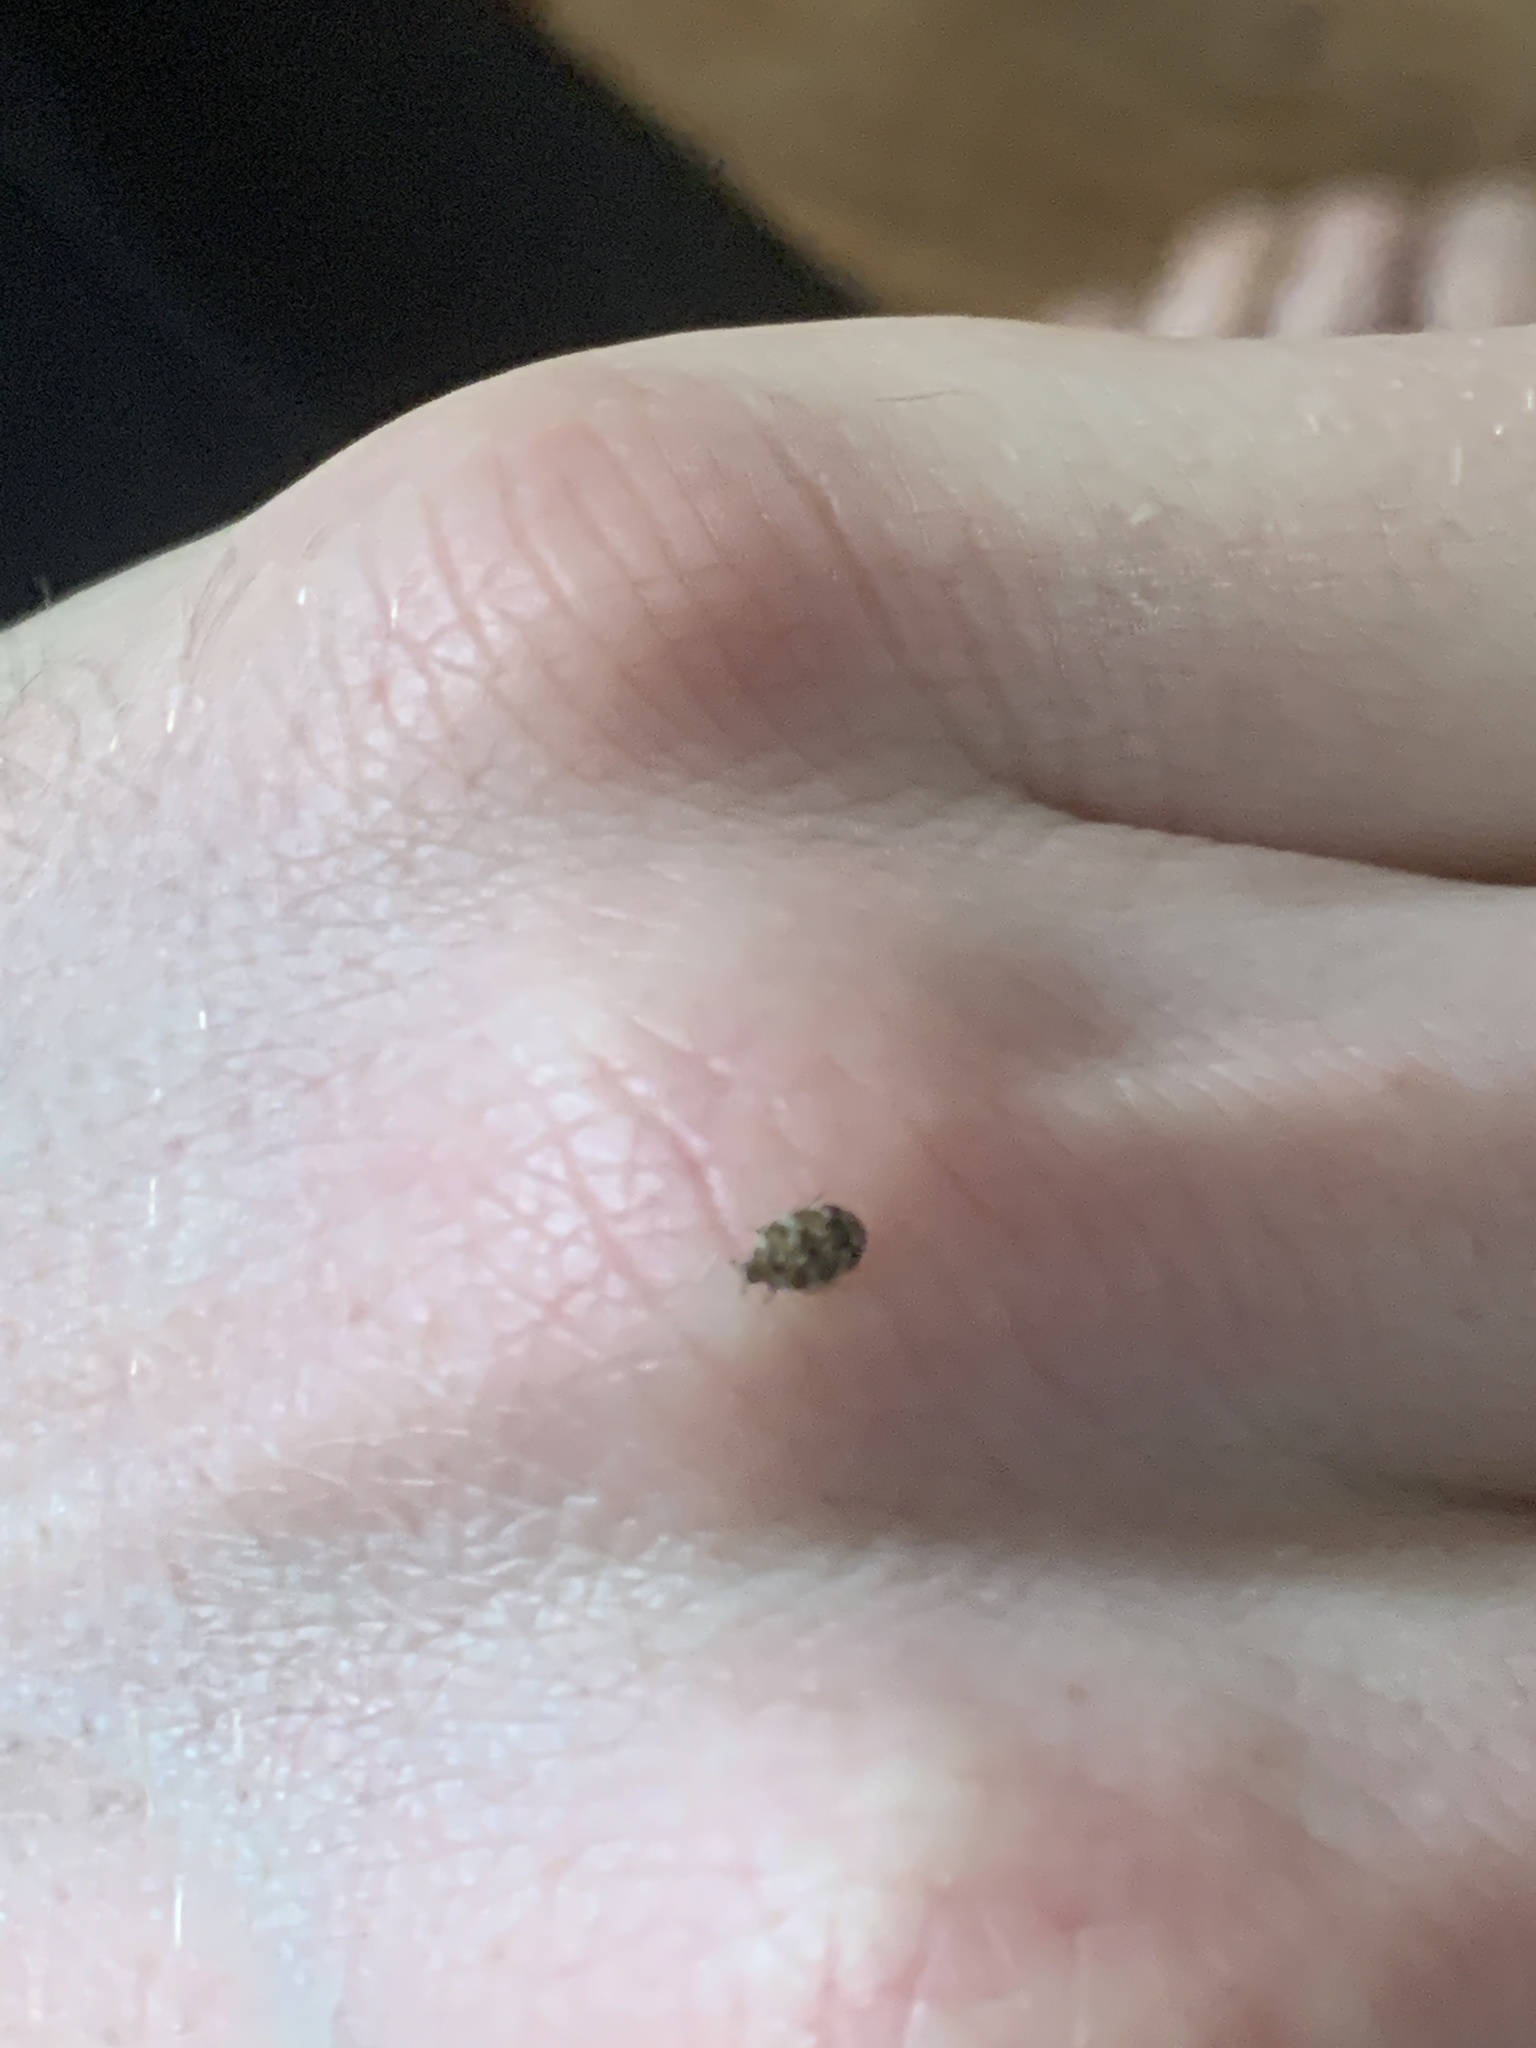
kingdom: Animalia
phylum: Arthropoda
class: Insecta
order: Coleoptera
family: Dermestidae
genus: Anthrenus
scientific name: Anthrenus verbasci
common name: Varied carpet beetle
